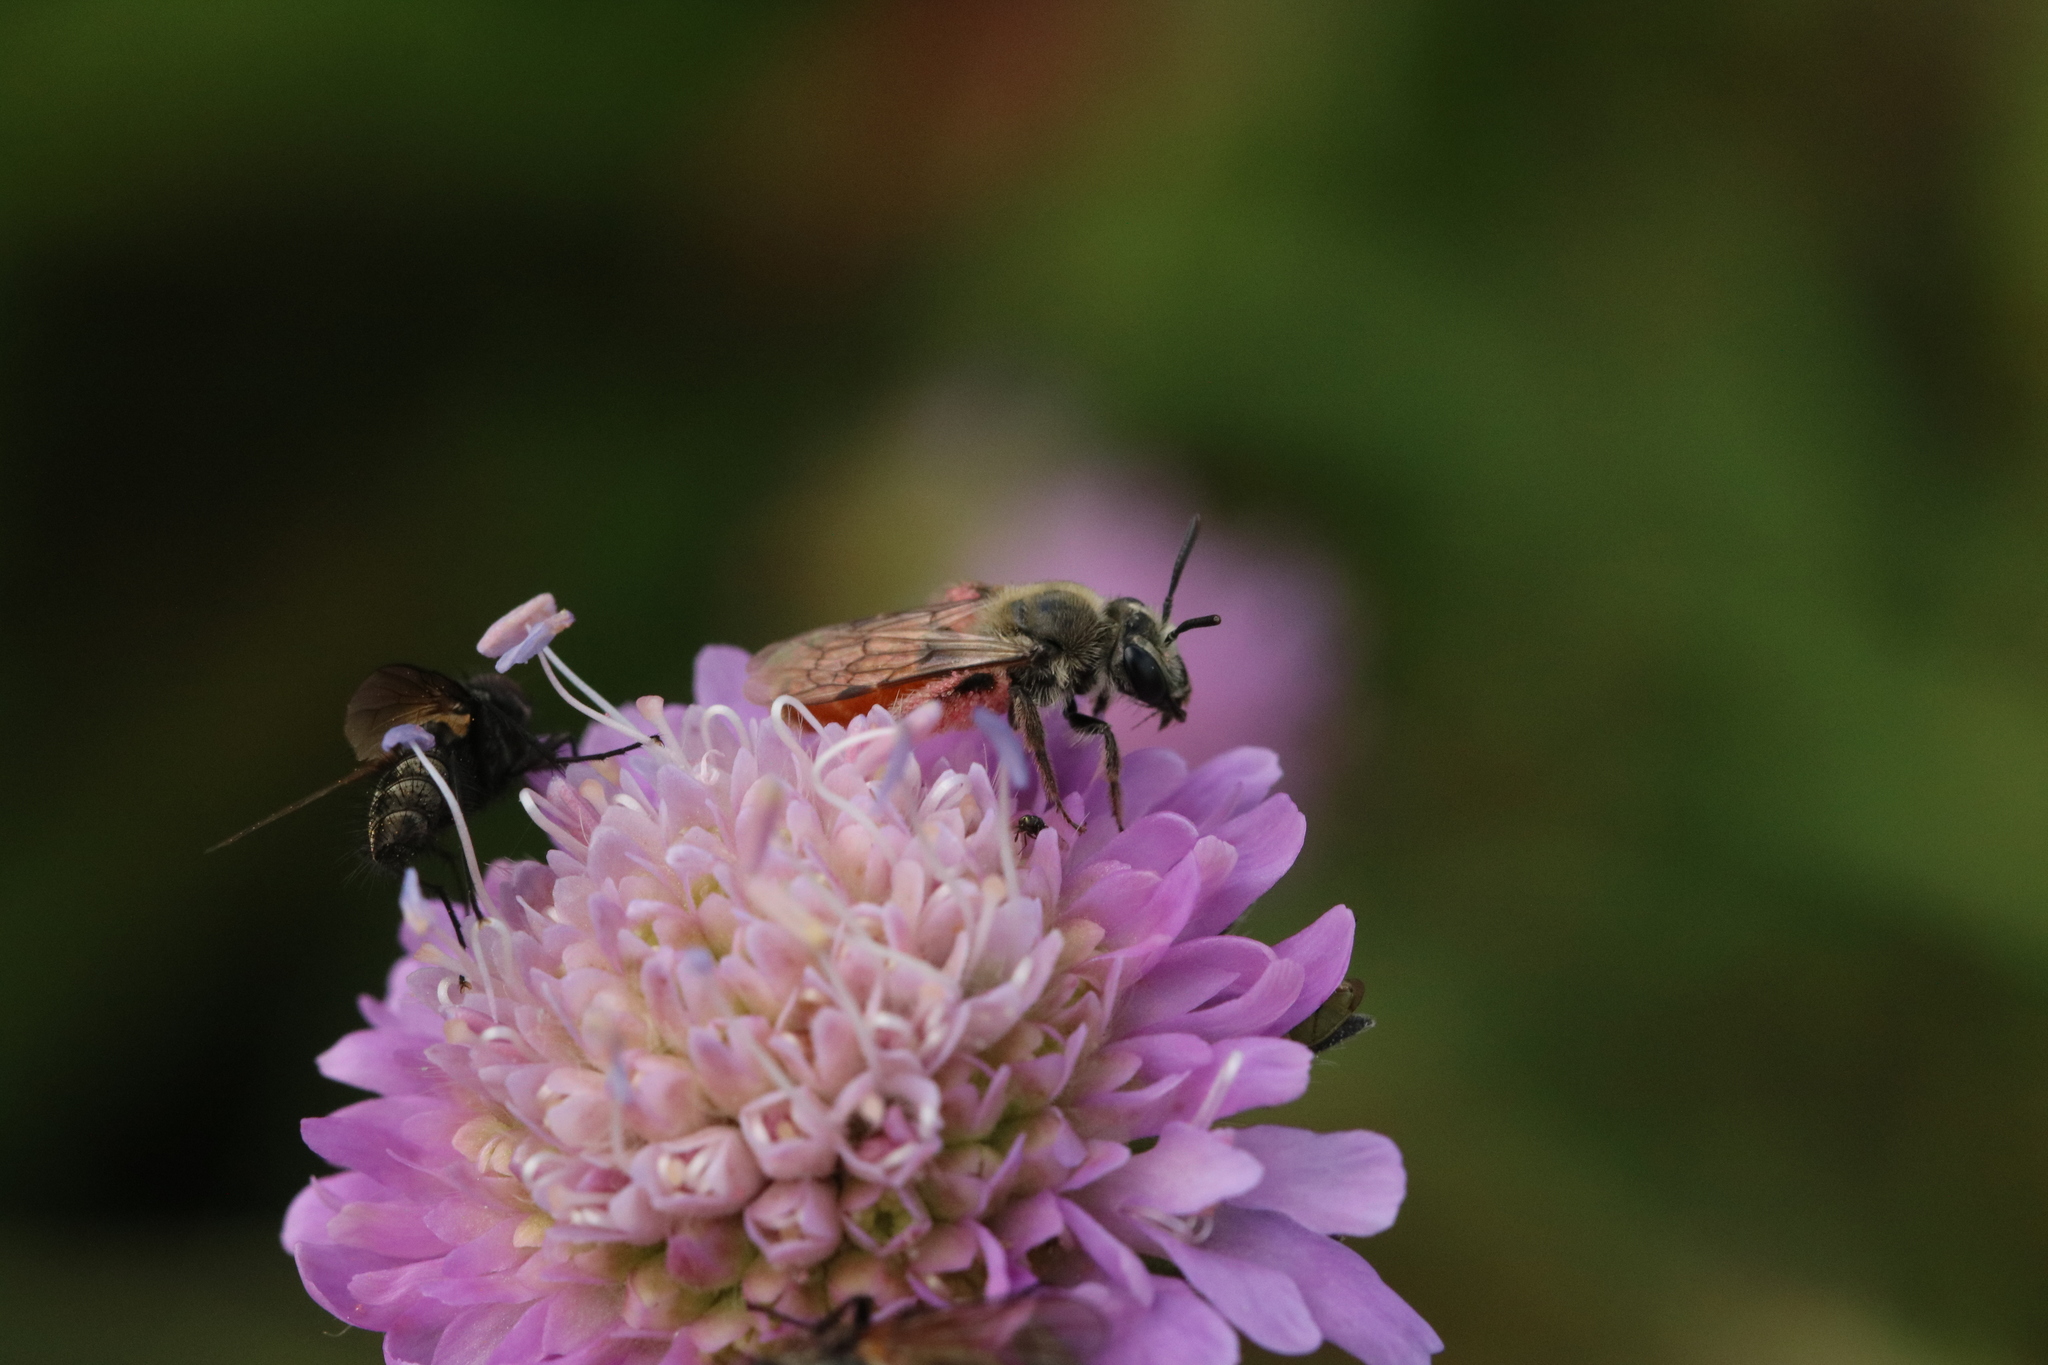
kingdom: Animalia
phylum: Arthropoda
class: Insecta
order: Hymenoptera
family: Andrenidae
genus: Andrena
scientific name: Andrena marginata
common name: Small scabious mining bee
